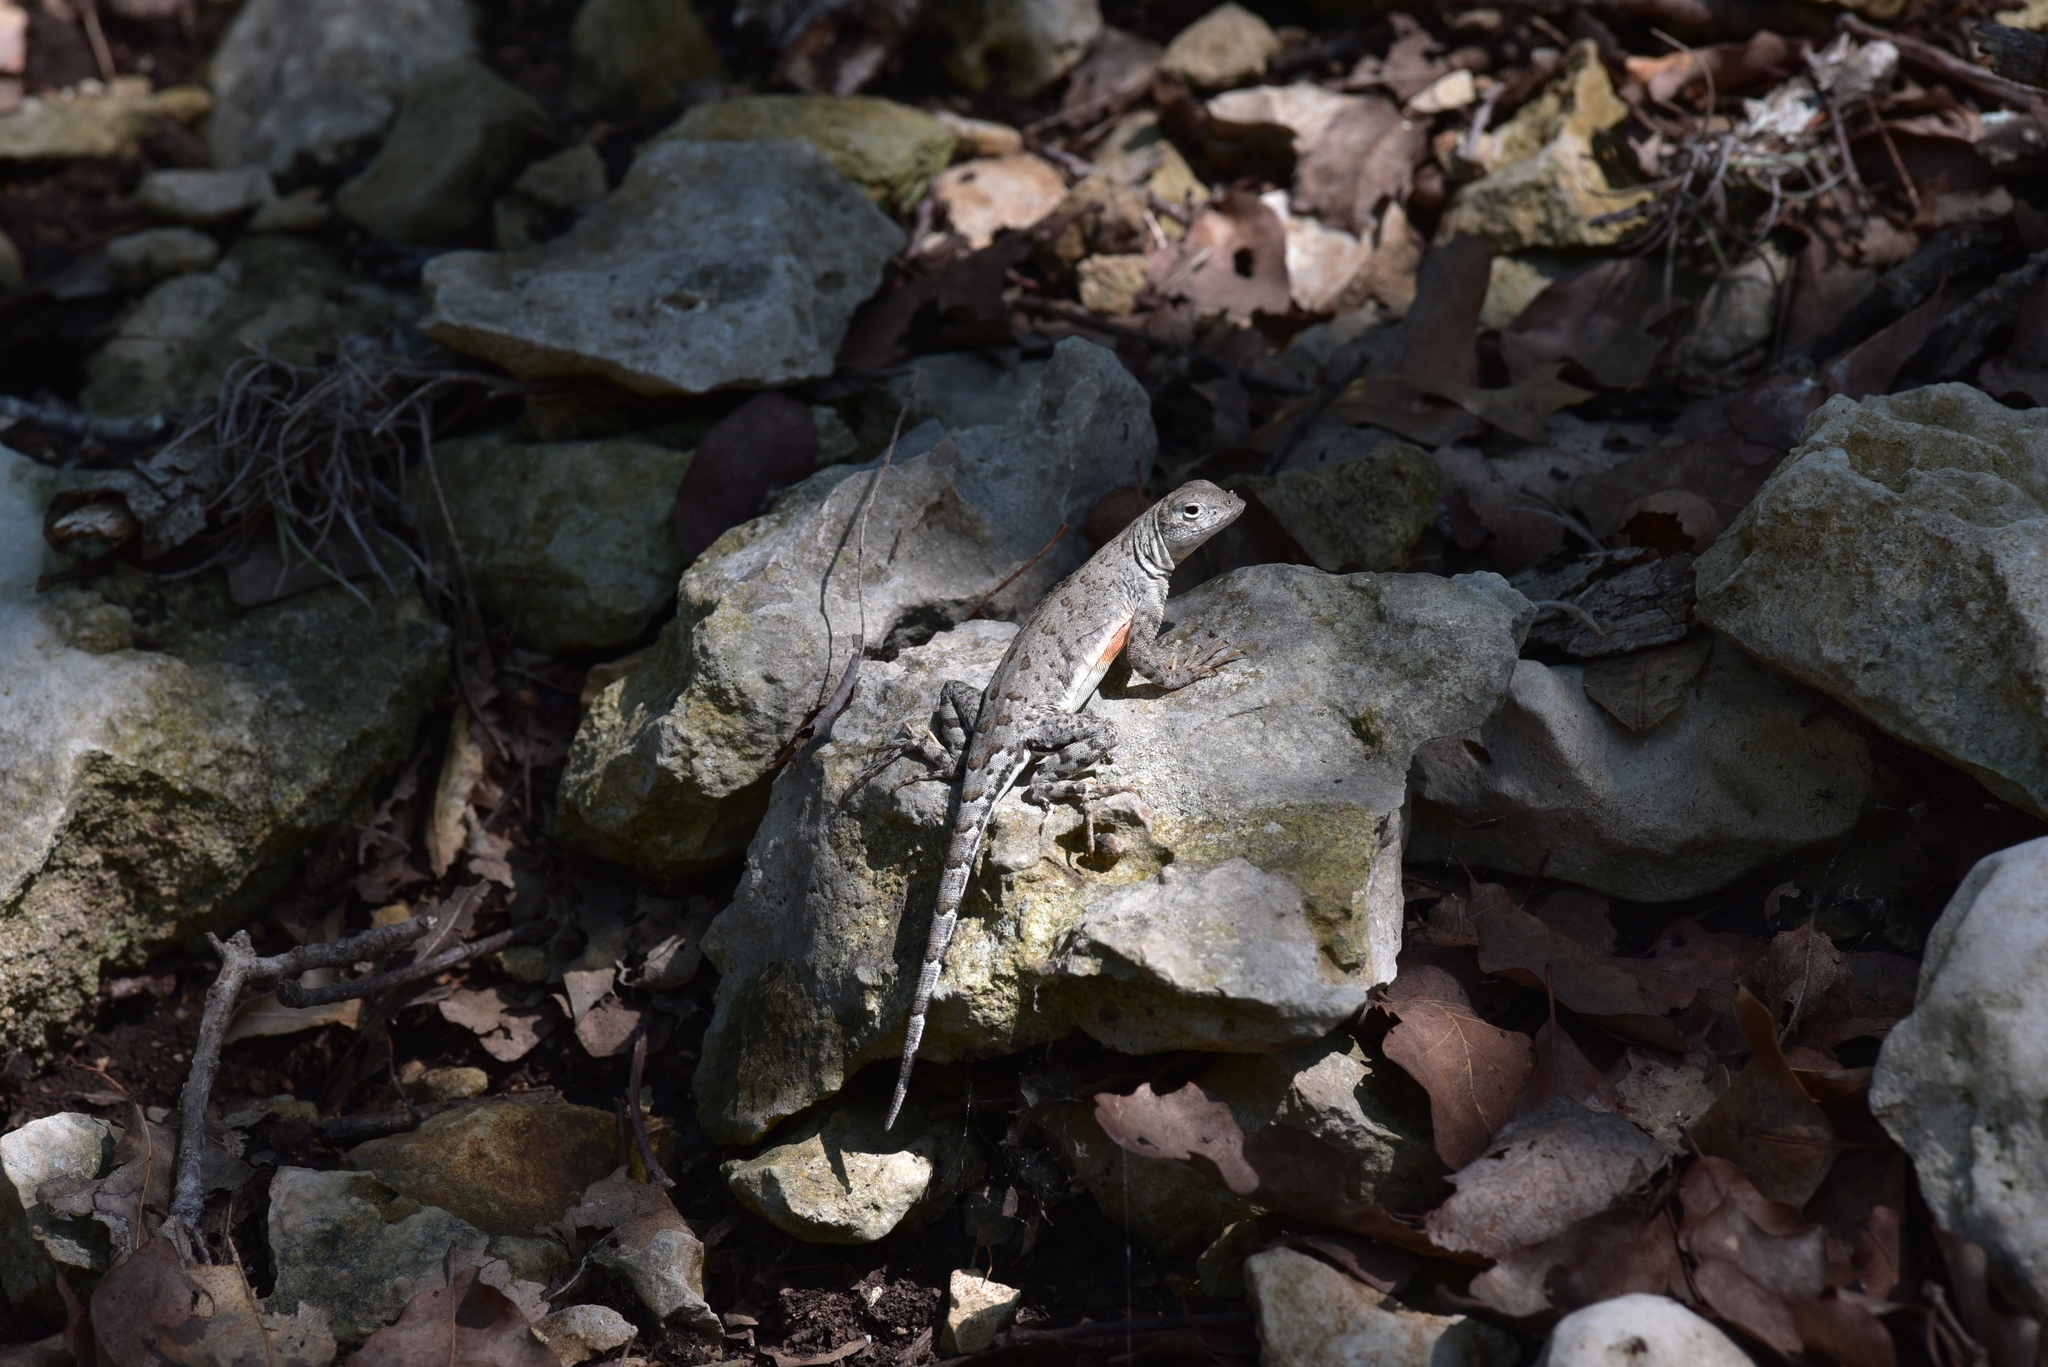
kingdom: Animalia
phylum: Chordata
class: Squamata
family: Phrynosomatidae
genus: Cophosaurus
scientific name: Cophosaurus texanus
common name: Greater earless lizard
